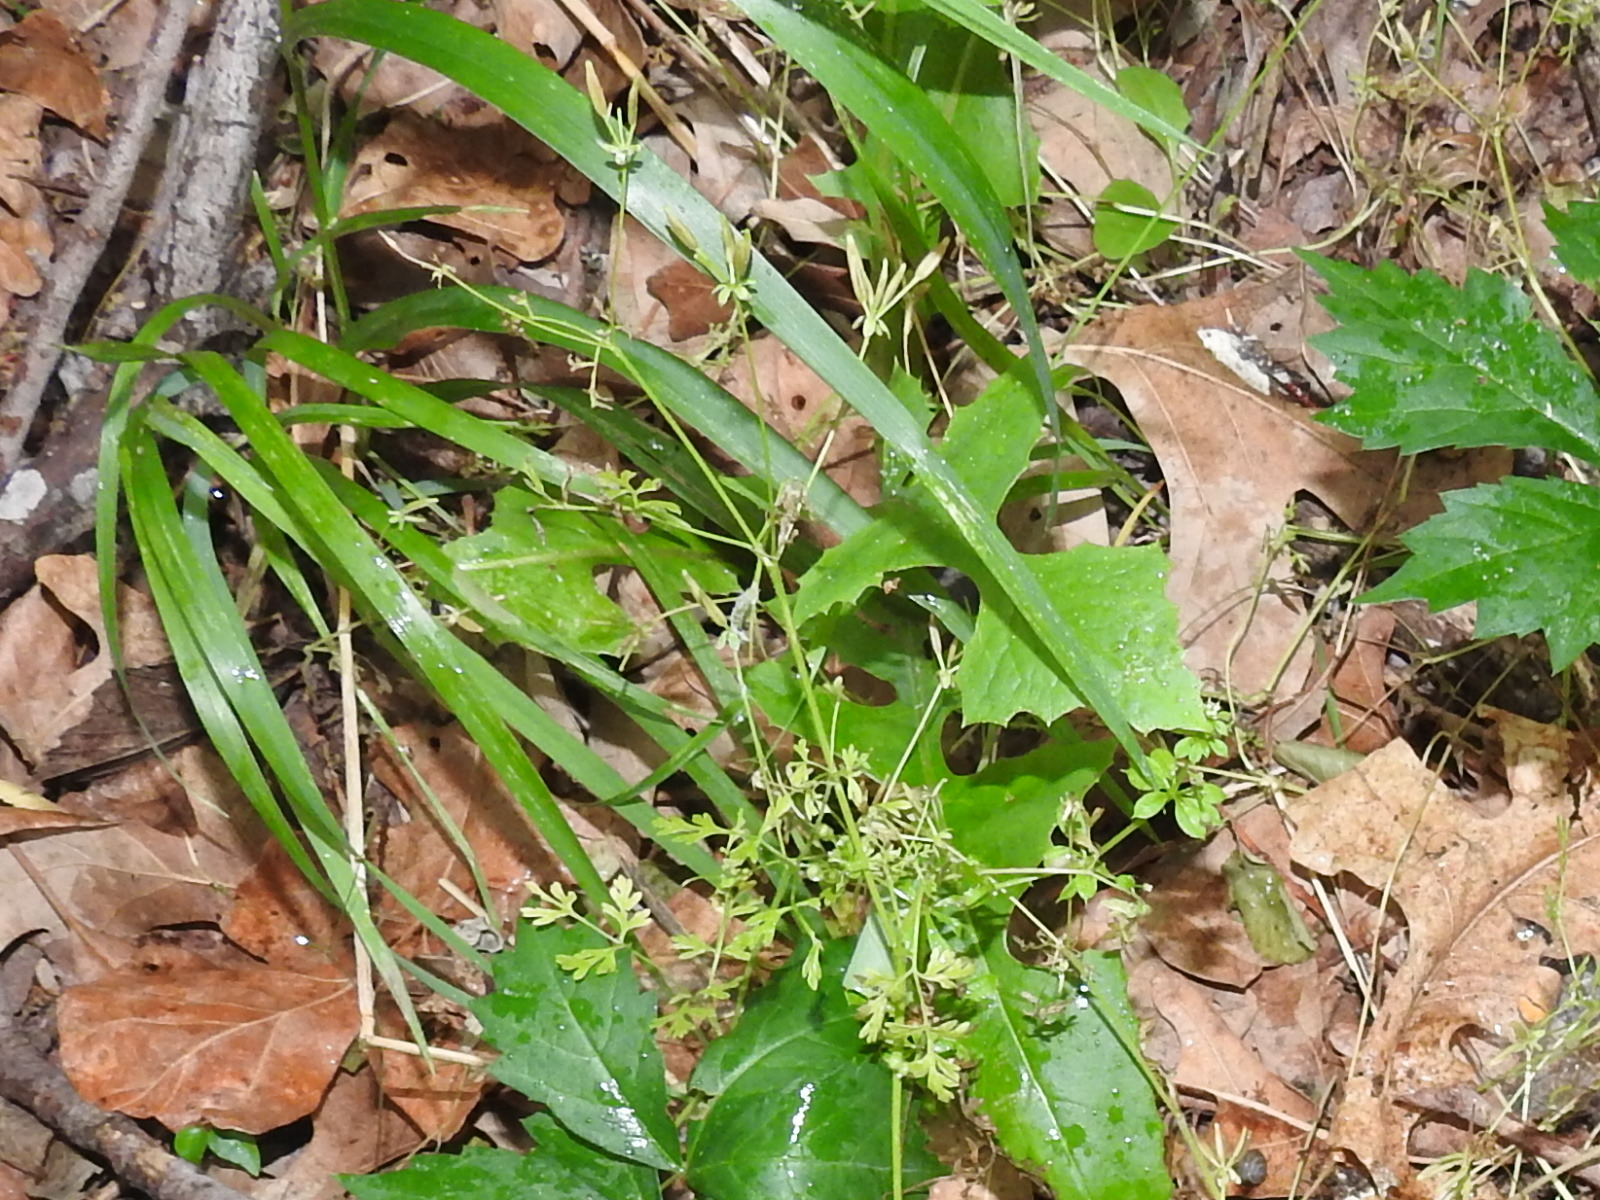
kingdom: Plantae
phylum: Tracheophyta
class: Magnoliopsida
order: Apiales
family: Apiaceae
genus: Chaerophyllum
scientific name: Chaerophyllum tainturieri
